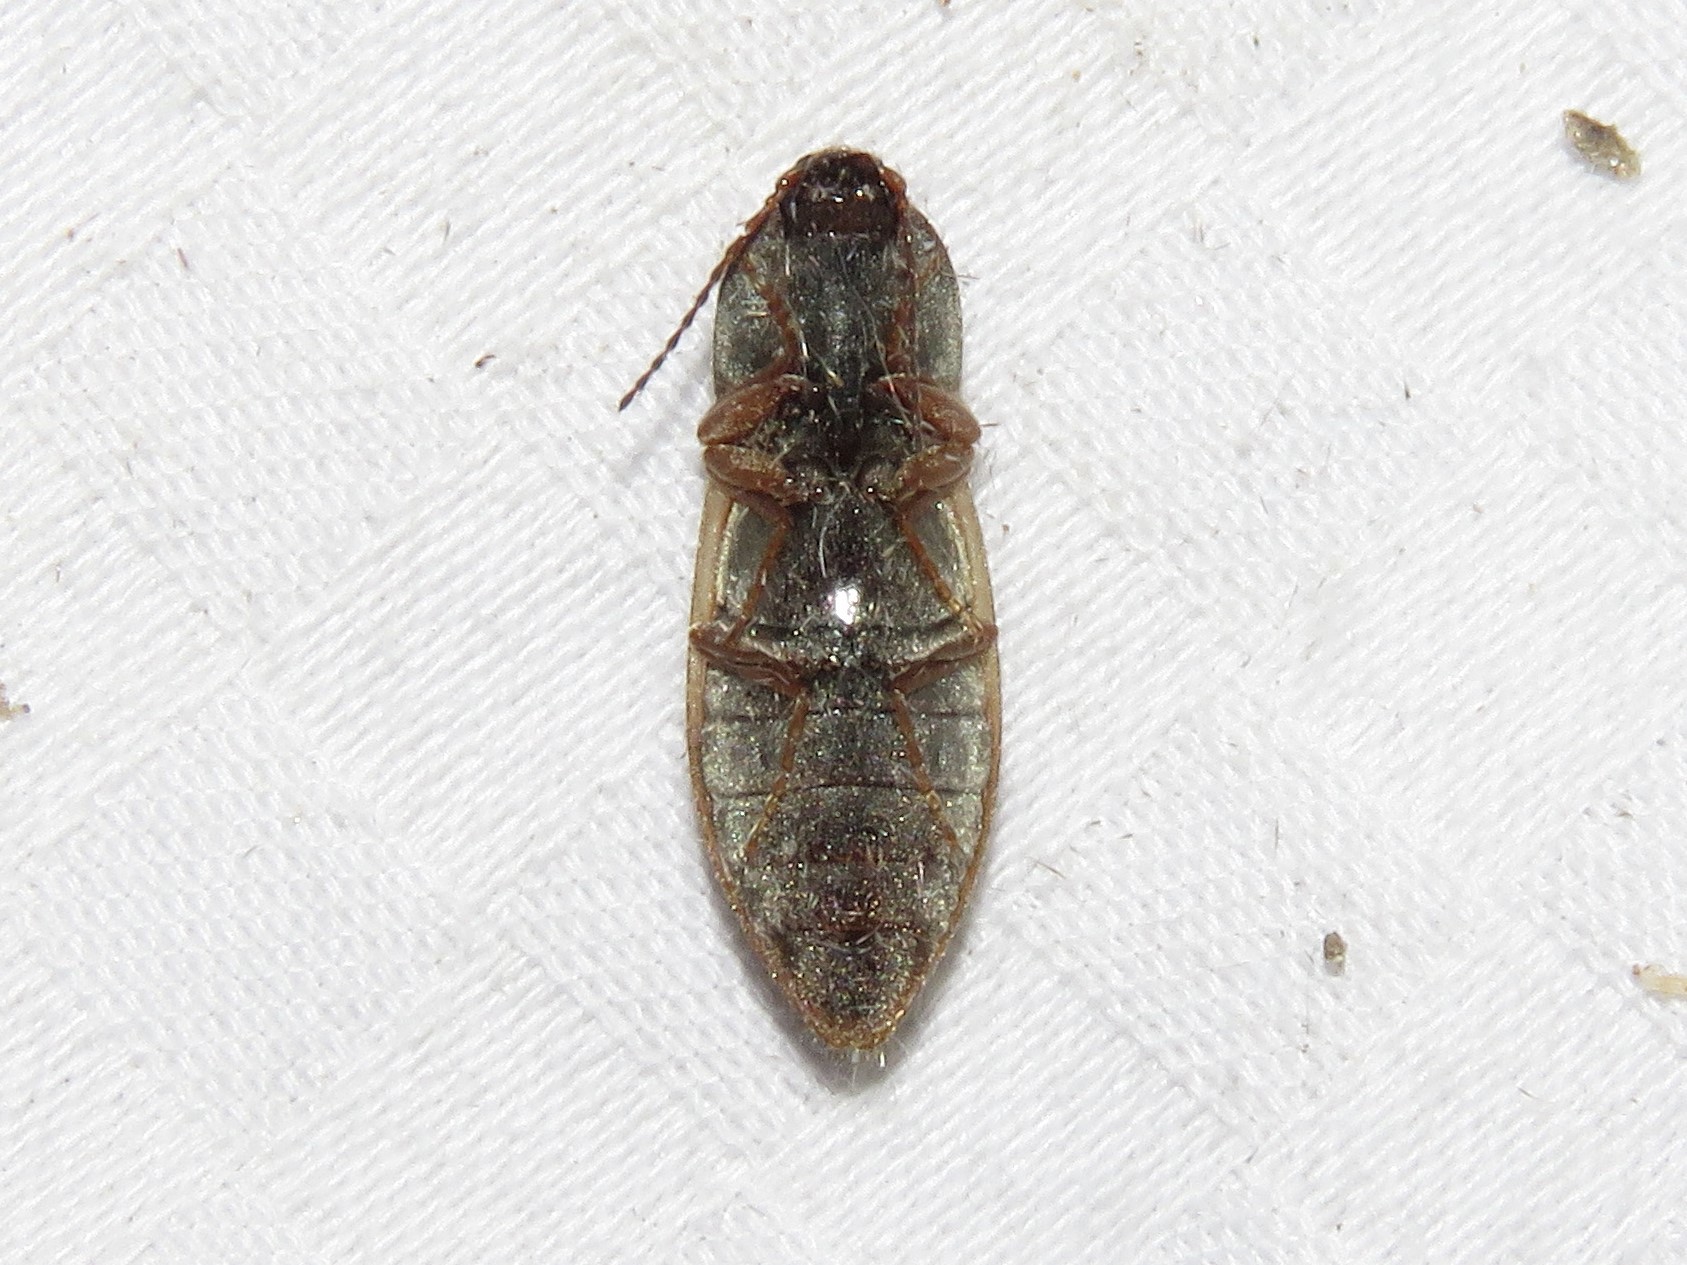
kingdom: Animalia
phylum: Arthropoda
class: Insecta
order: Coleoptera
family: Elateridae
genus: Stropenron
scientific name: Stropenron hieroglyphica
